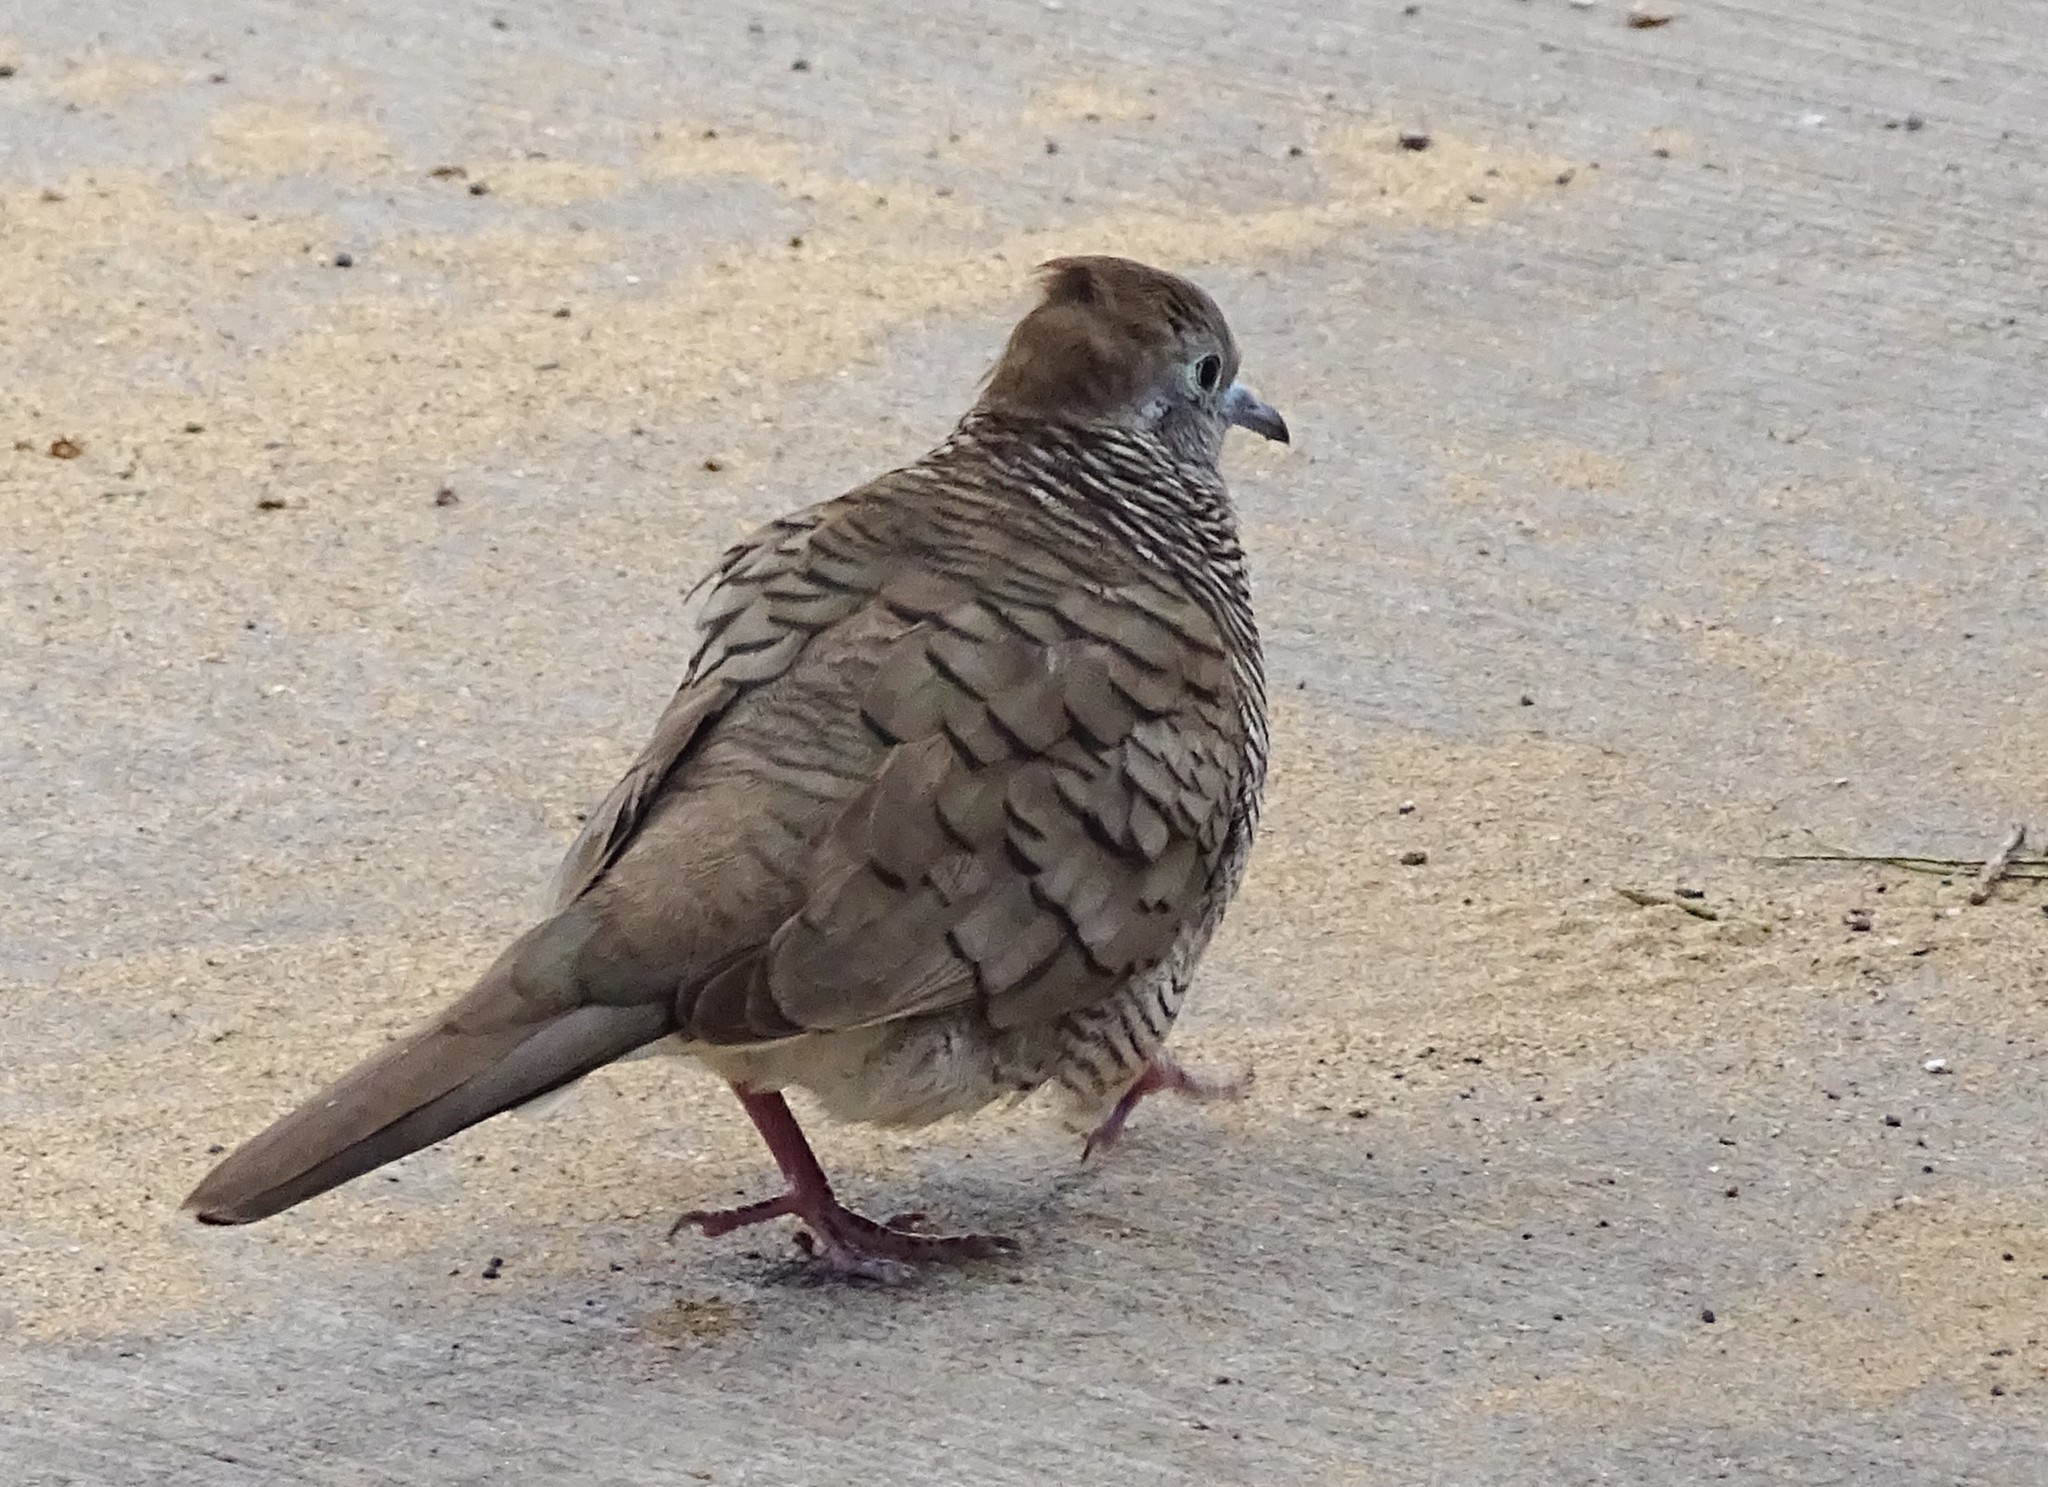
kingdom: Animalia
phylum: Chordata
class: Aves
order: Columbiformes
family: Columbidae
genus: Geopelia
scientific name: Geopelia striata
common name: Zebra dove
